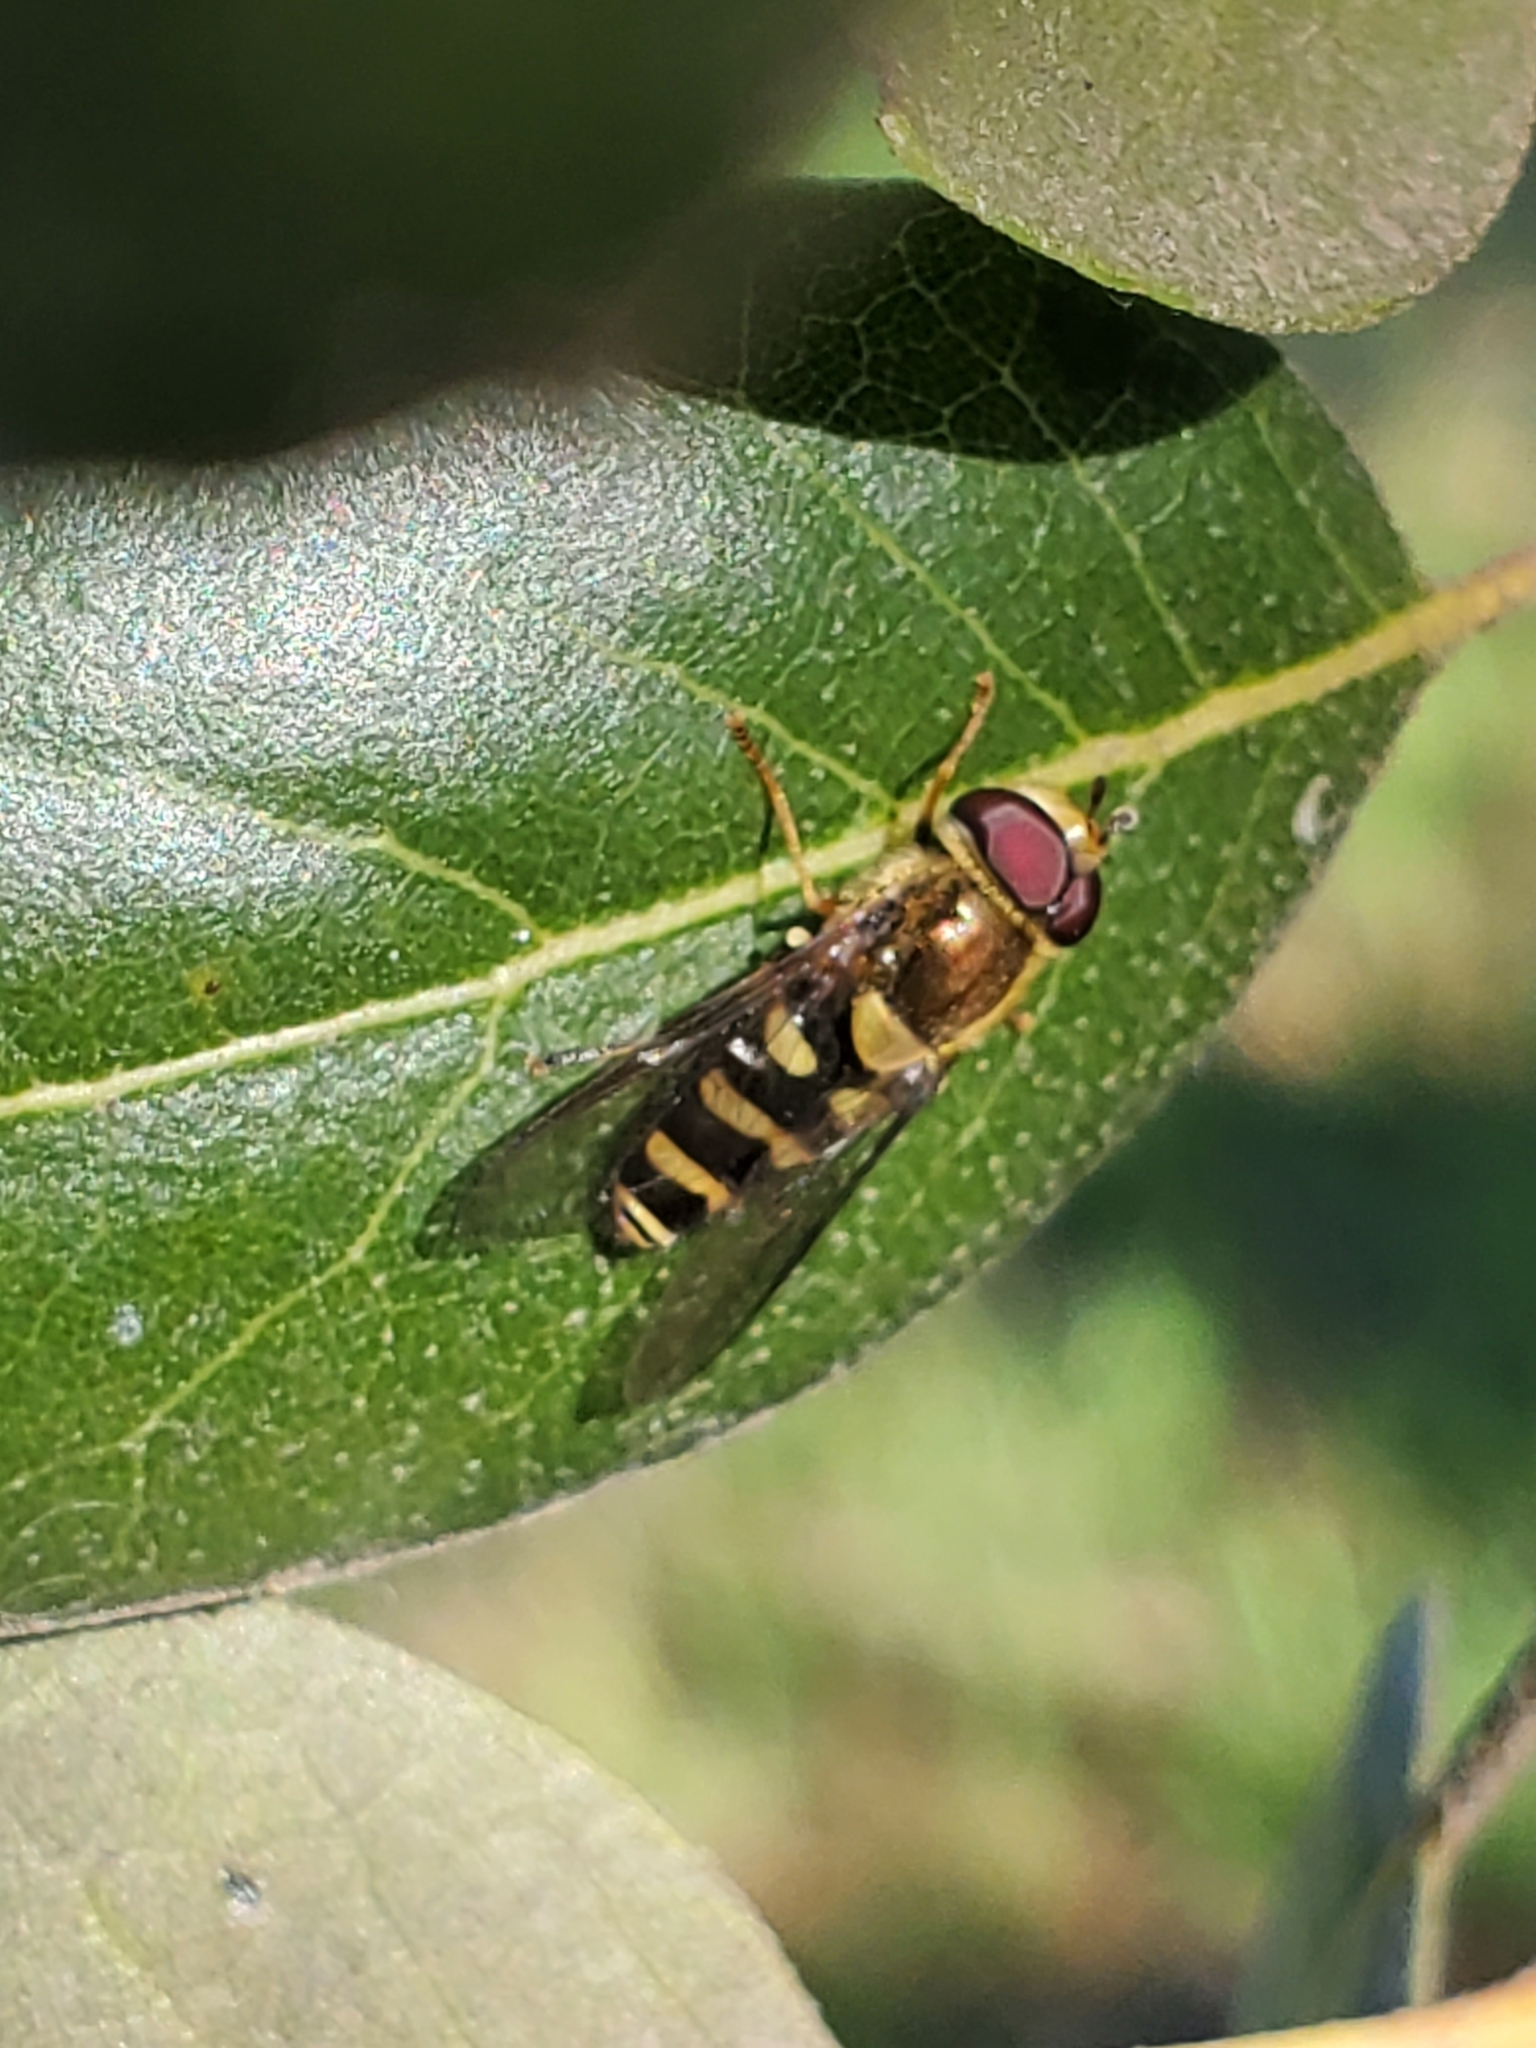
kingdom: Animalia
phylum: Arthropoda
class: Insecta
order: Diptera
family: Syrphidae
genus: Syrphus
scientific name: Syrphus opinator
